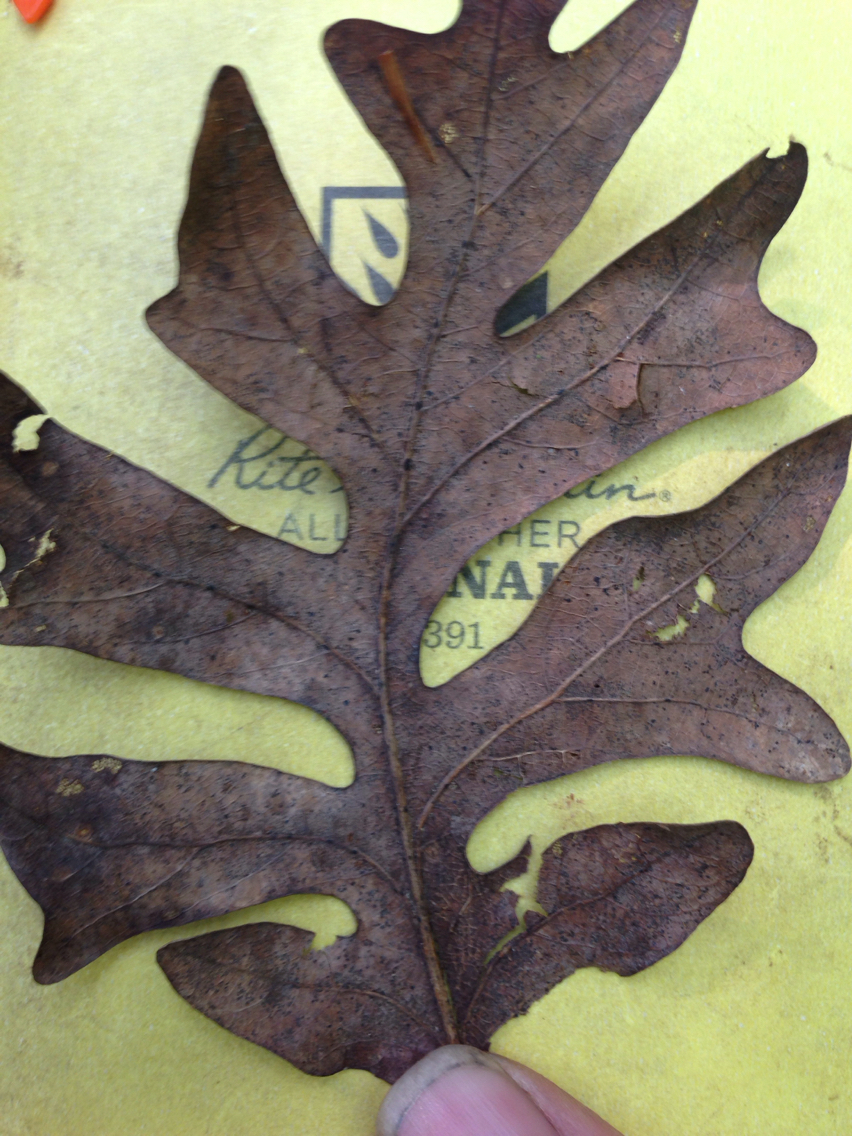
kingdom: Plantae
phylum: Tracheophyta
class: Magnoliopsida
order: Fagales
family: Fagaceae
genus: Quercus
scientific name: Quercus alba
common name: White oak
